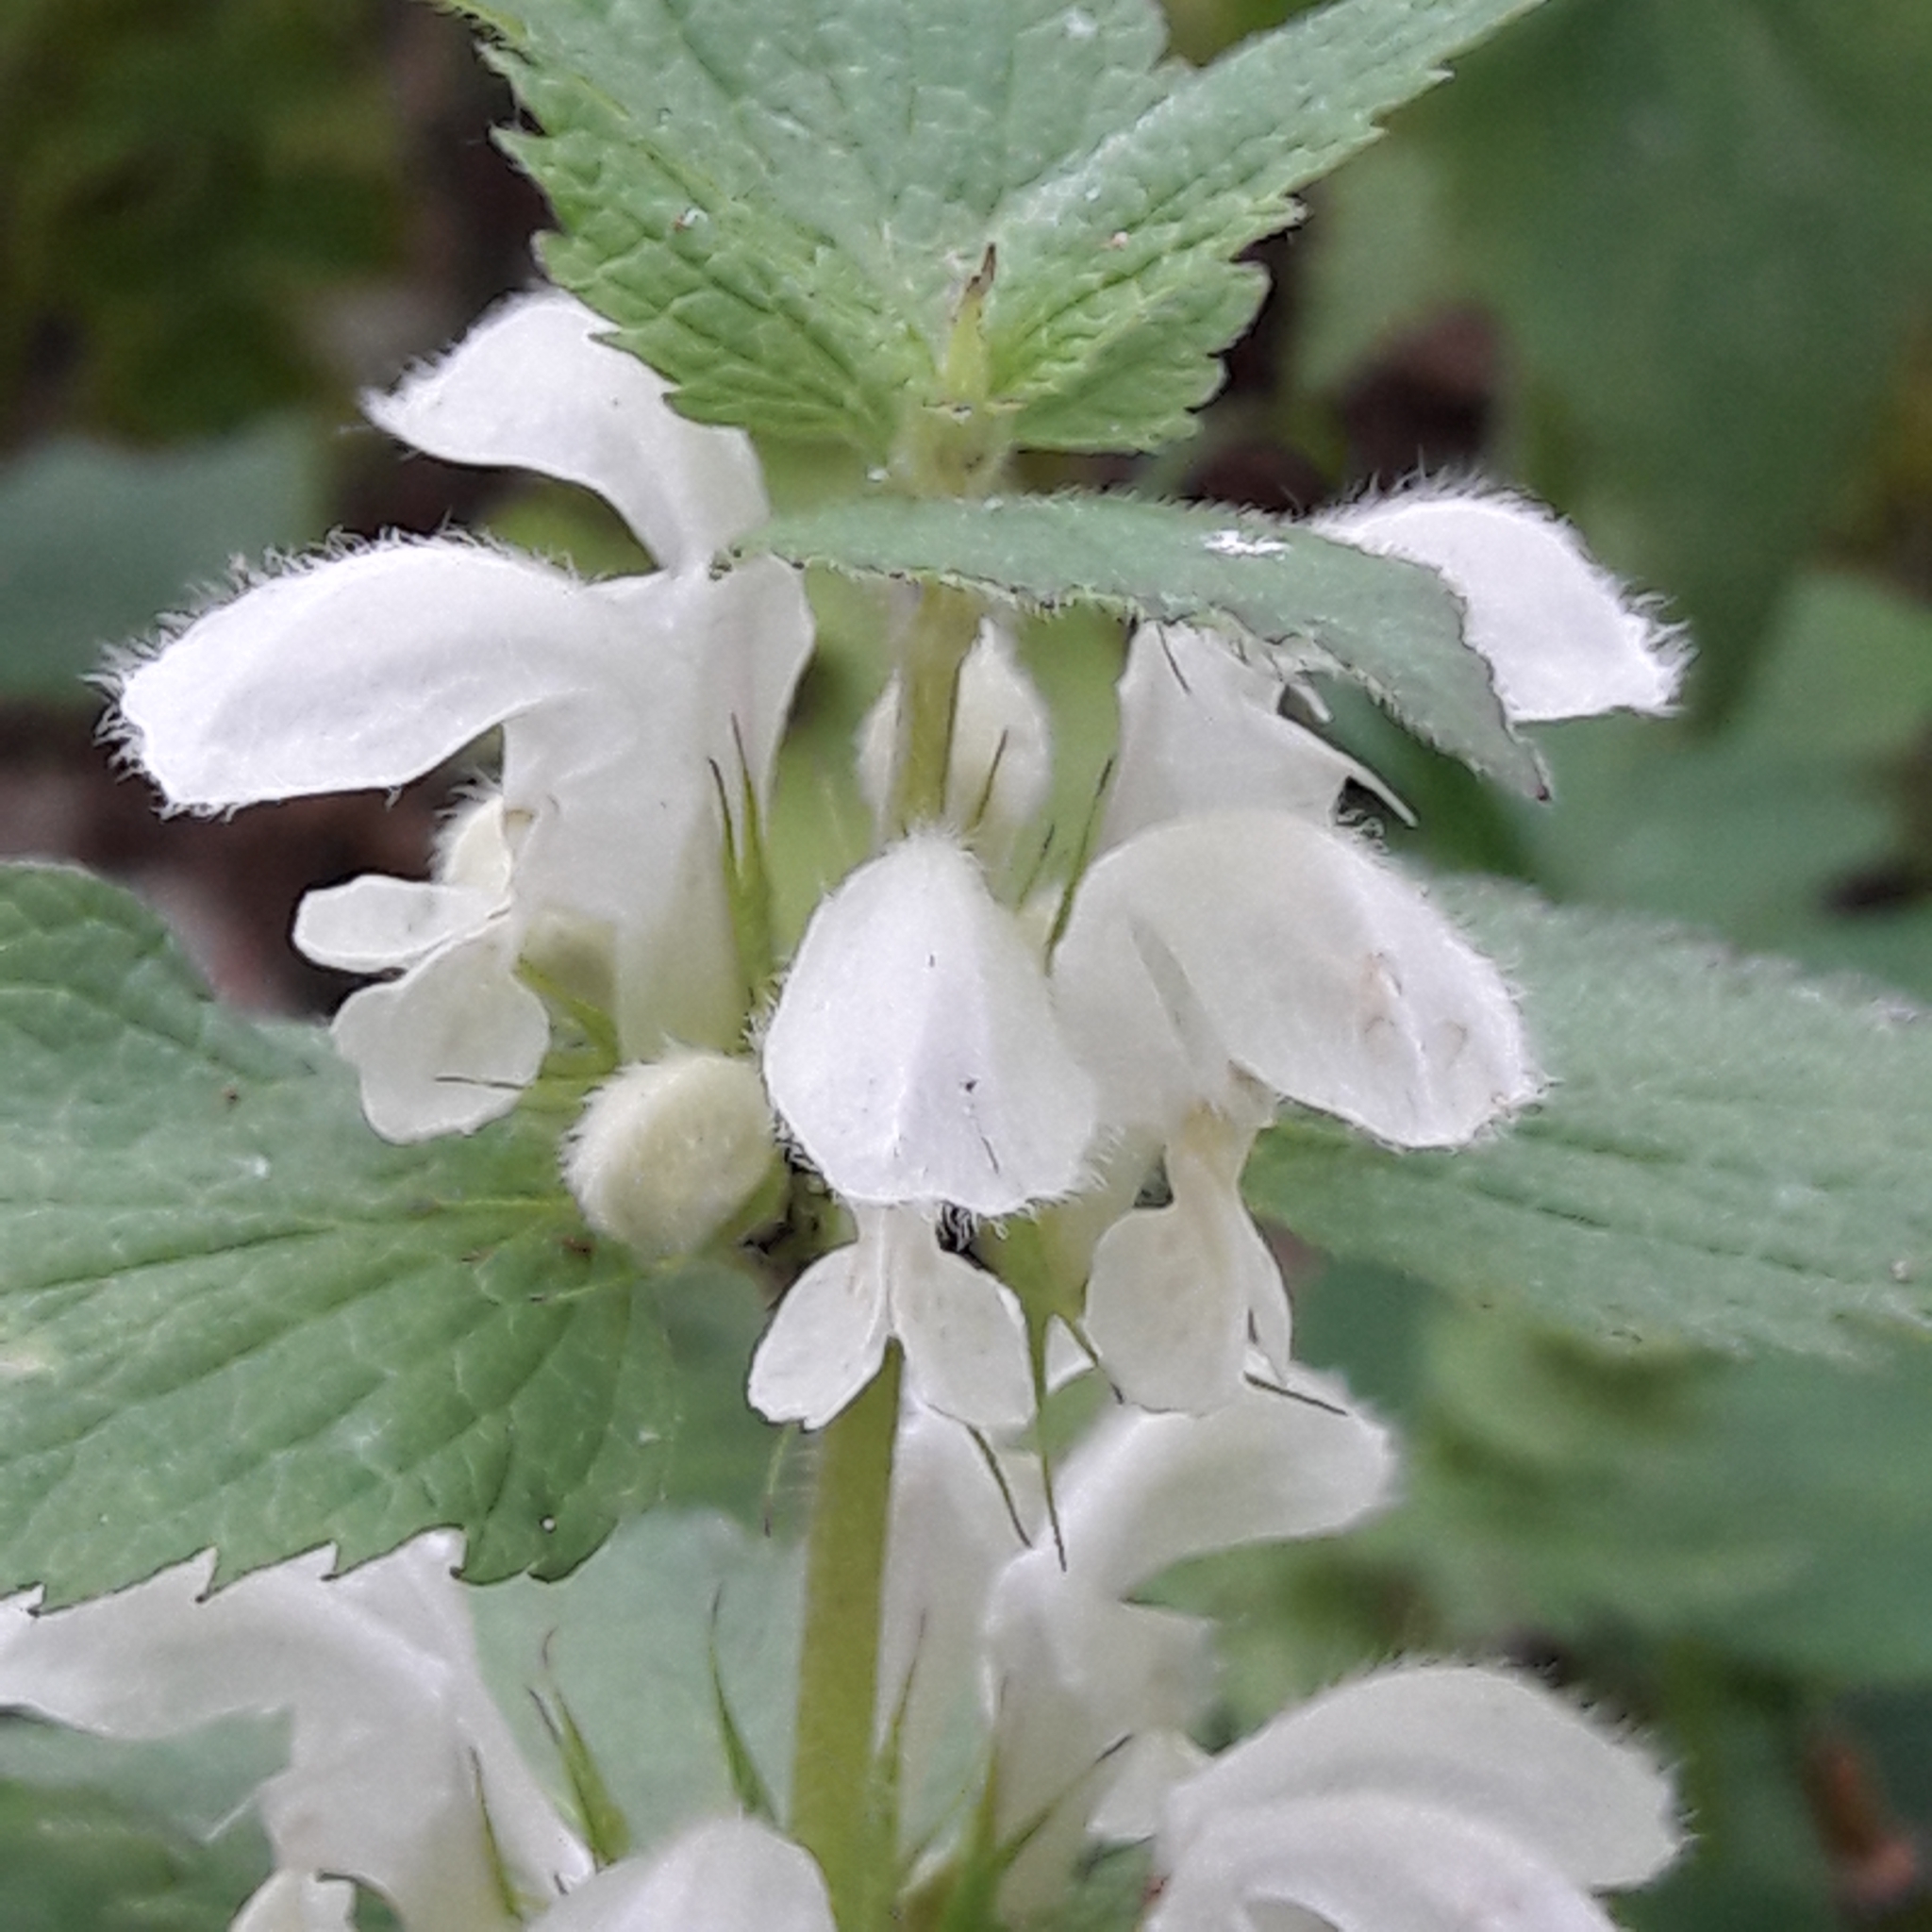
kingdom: Plantae
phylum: Tracheophyta
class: Magnoliopsida
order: Lamiales
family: Lamiaceae
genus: Lamium
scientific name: Lamium album
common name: White dead-nettle
